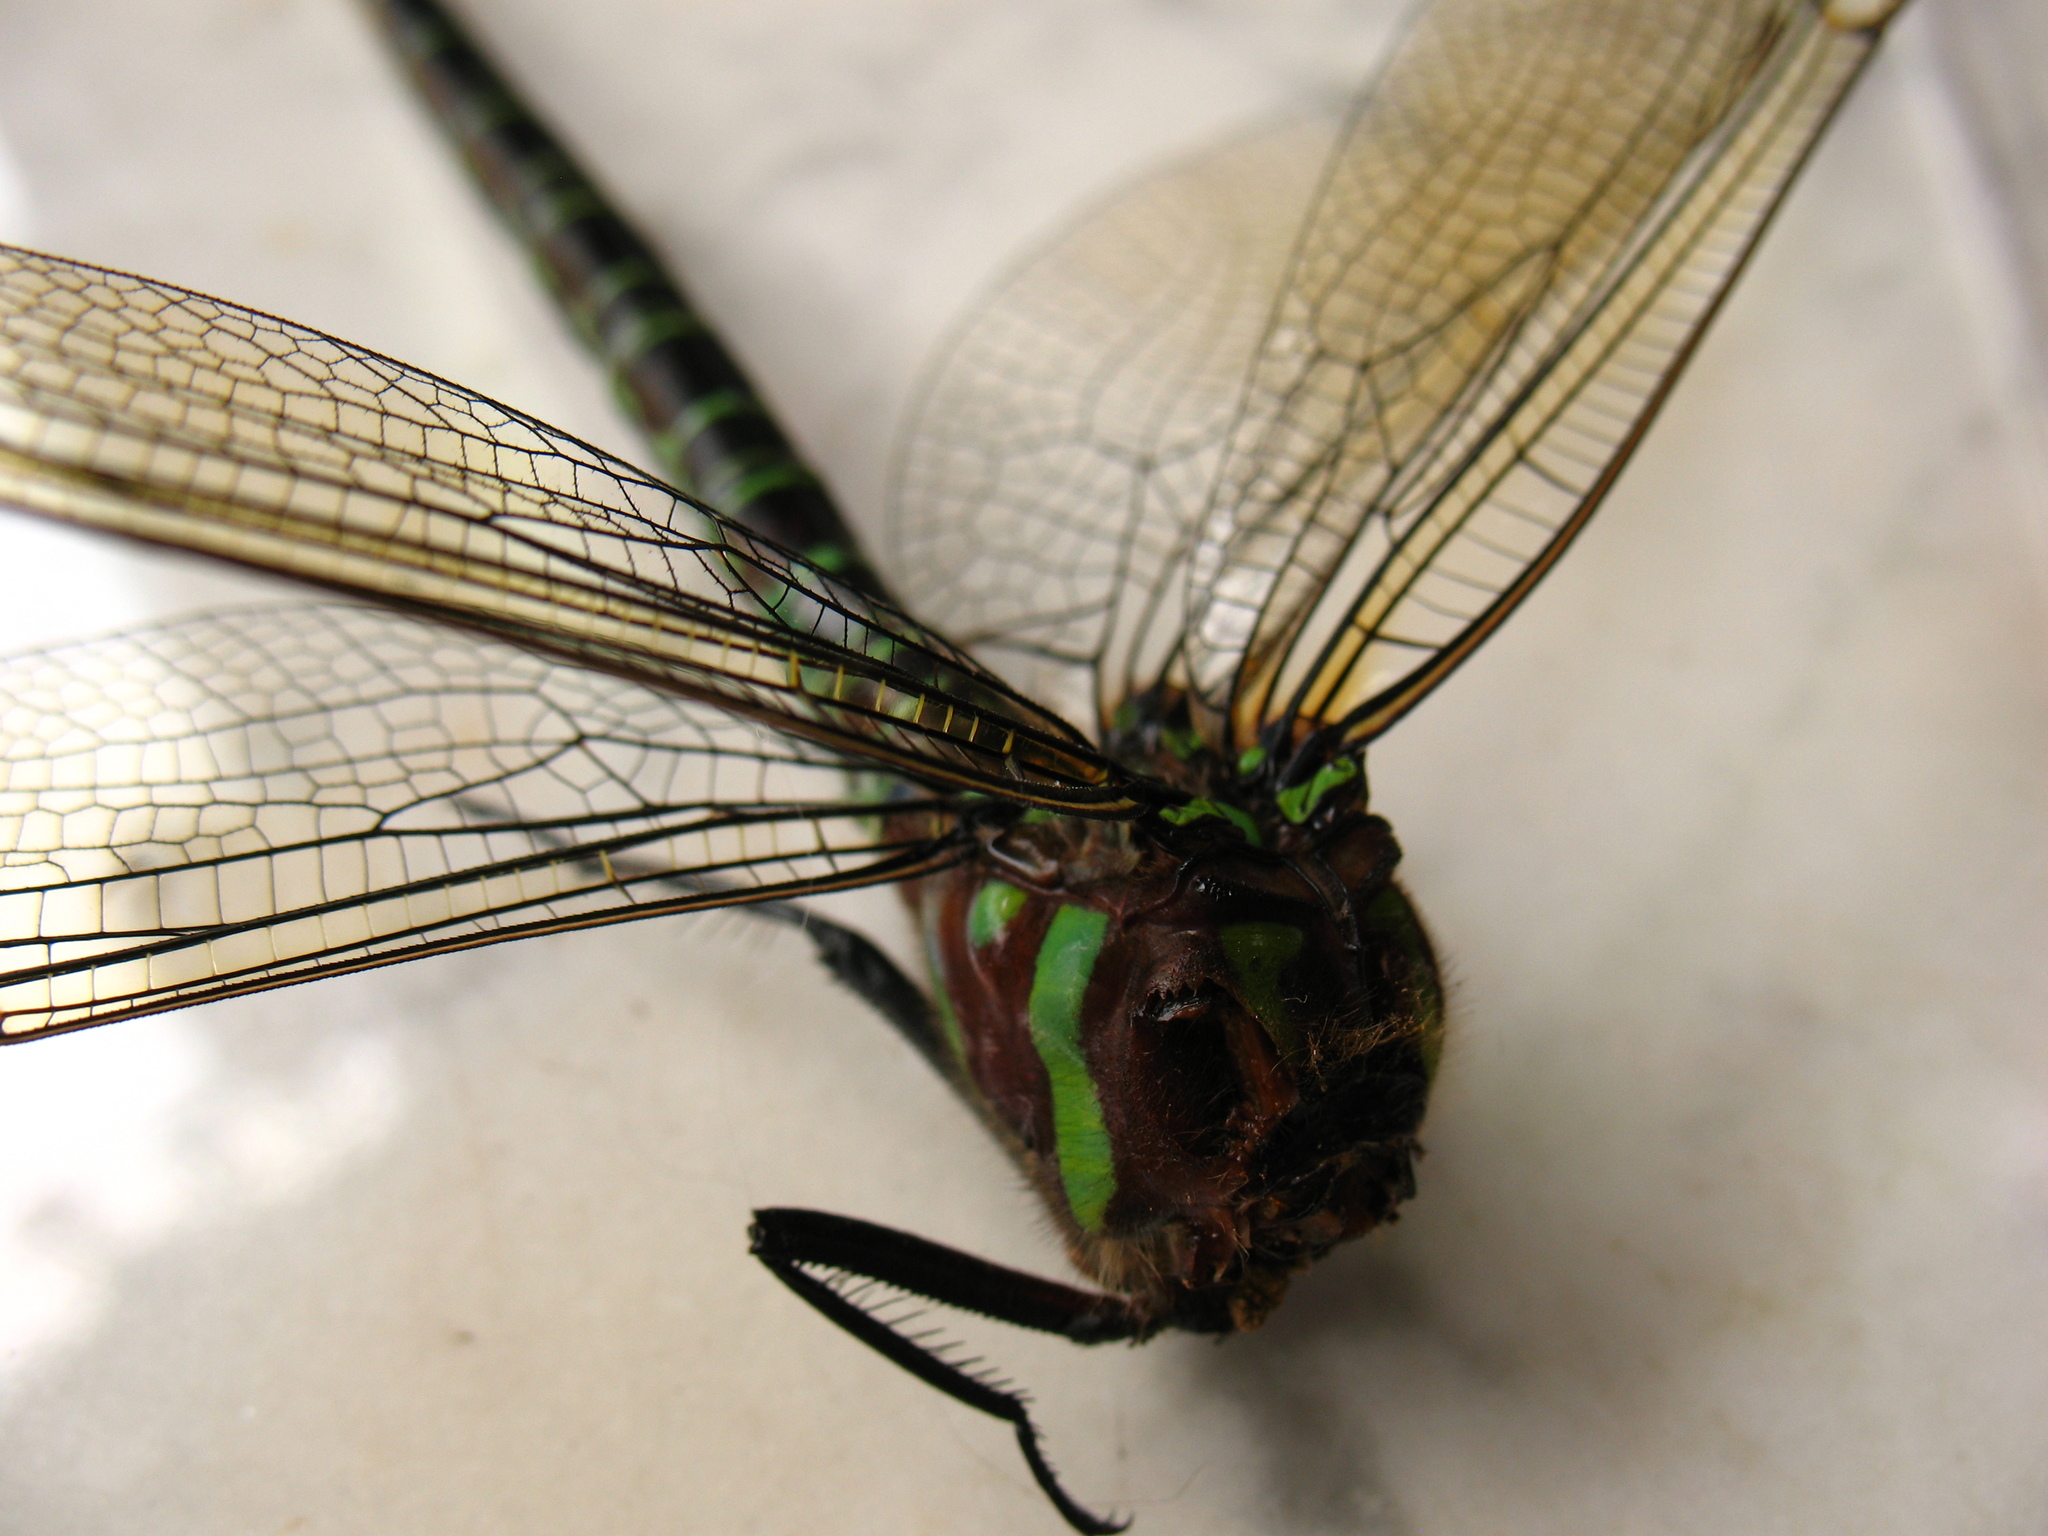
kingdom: Animalia
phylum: Arthropoda
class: Insecta
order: Odonata
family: Aeshnidae
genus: Epiaeschna
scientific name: Epiaeschna heros
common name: Swamp darner
